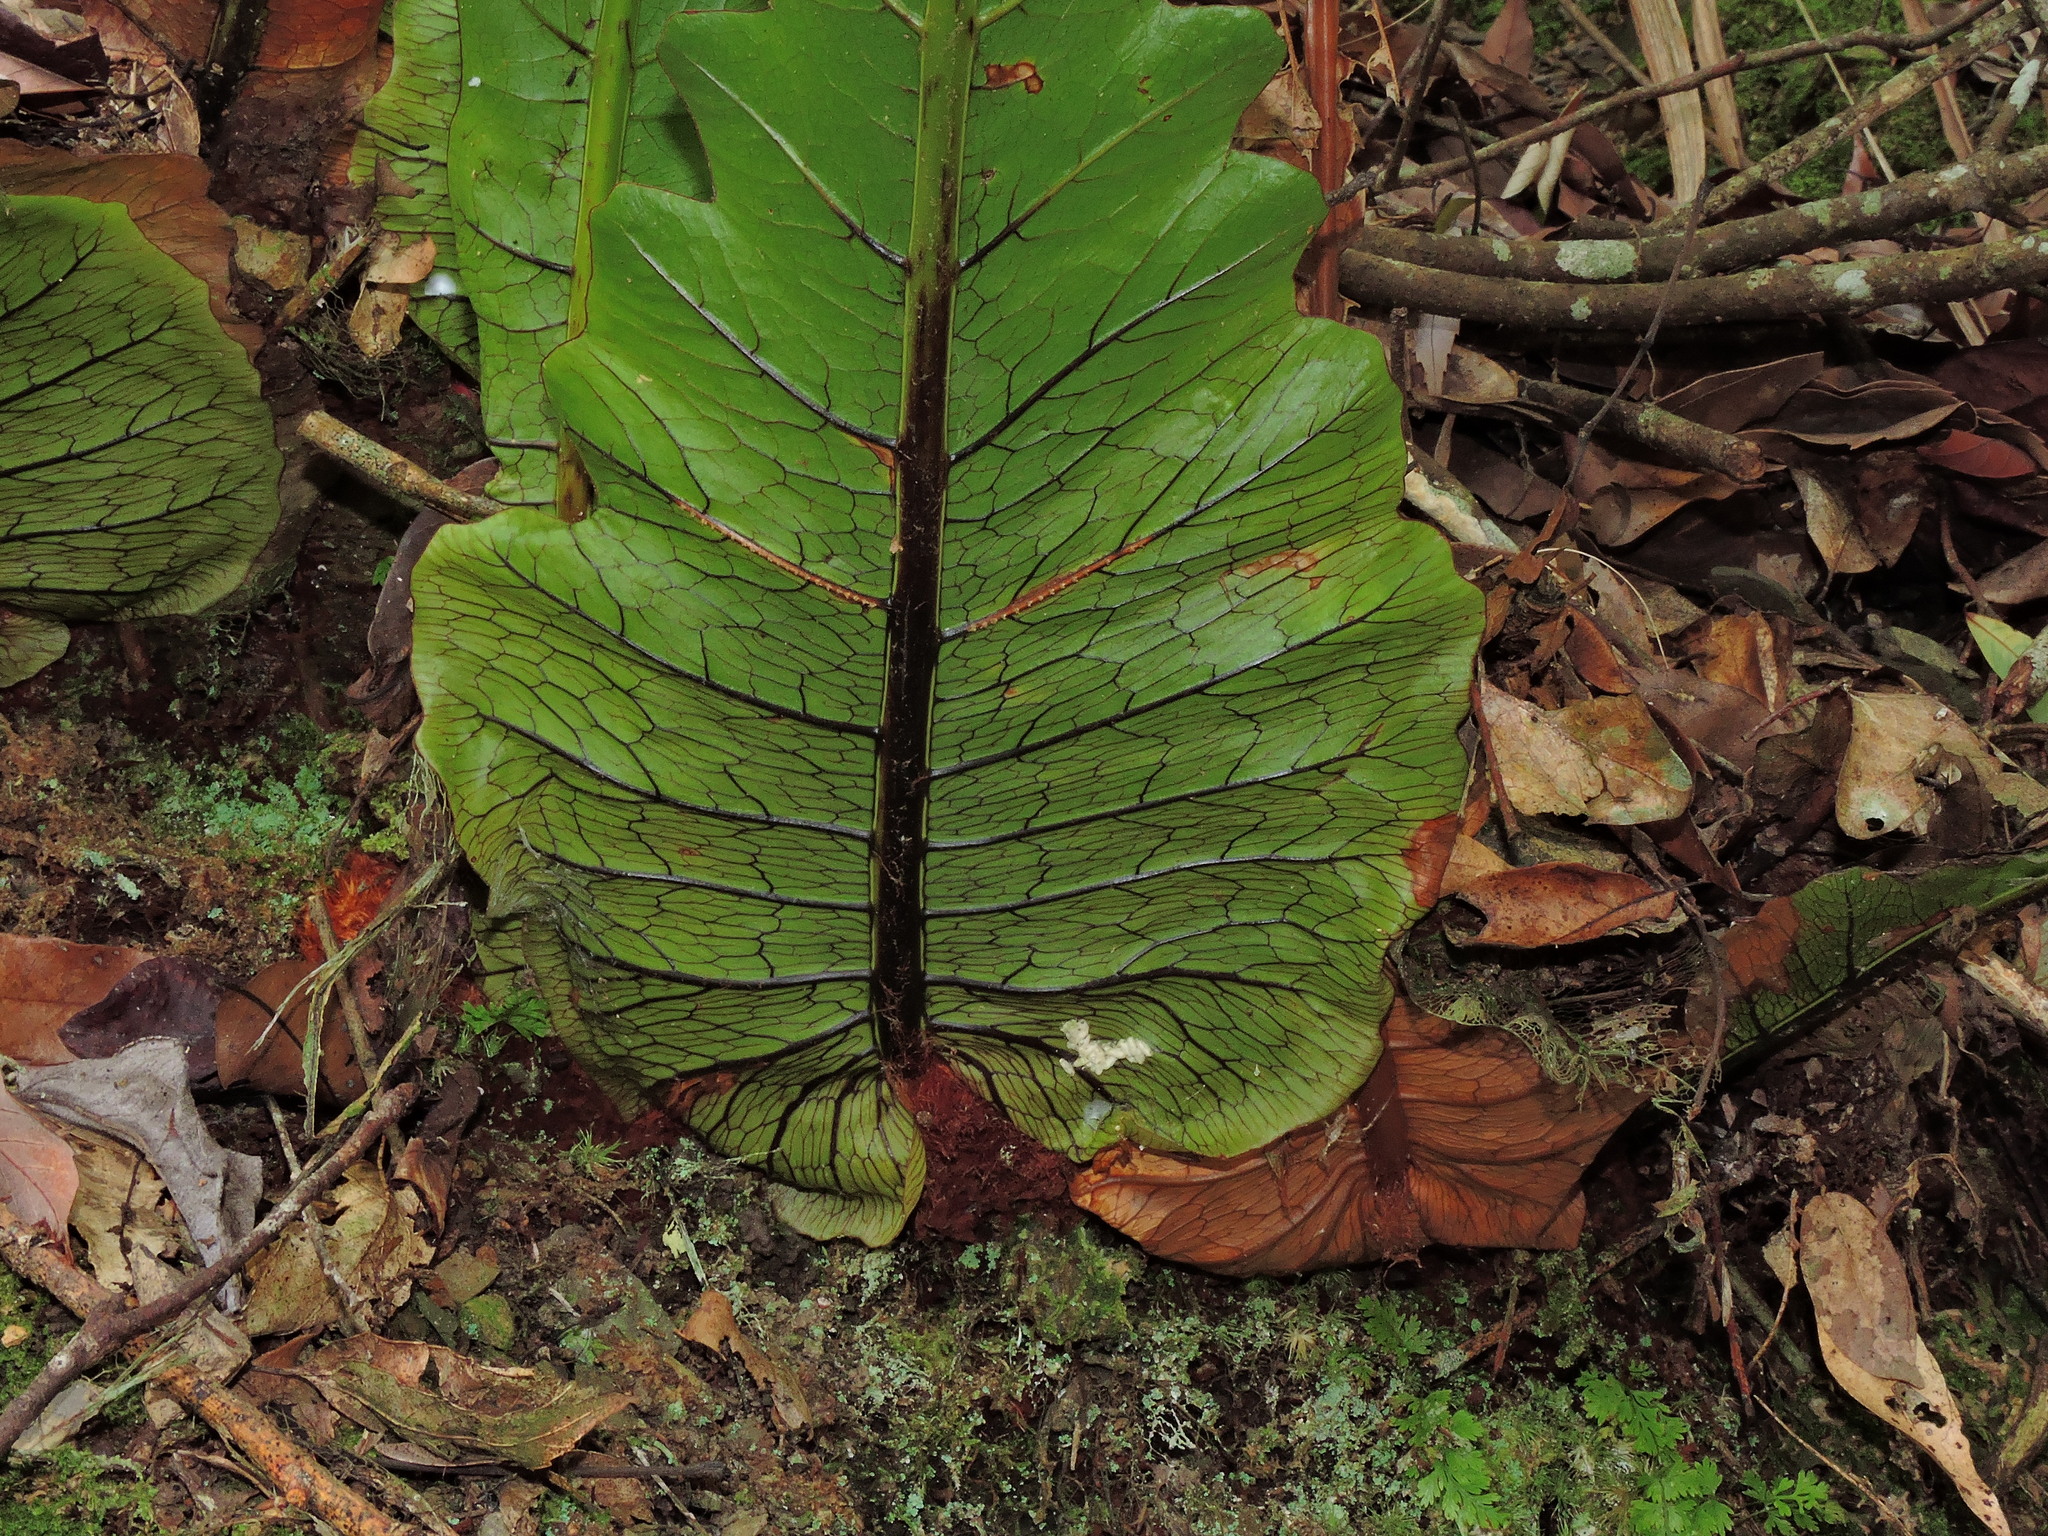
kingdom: Plantae
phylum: Tracheophyta
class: Polypodiopsida
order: Polypodiales
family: Polypodiaceae
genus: Drynaria
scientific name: Drynaria coronans
